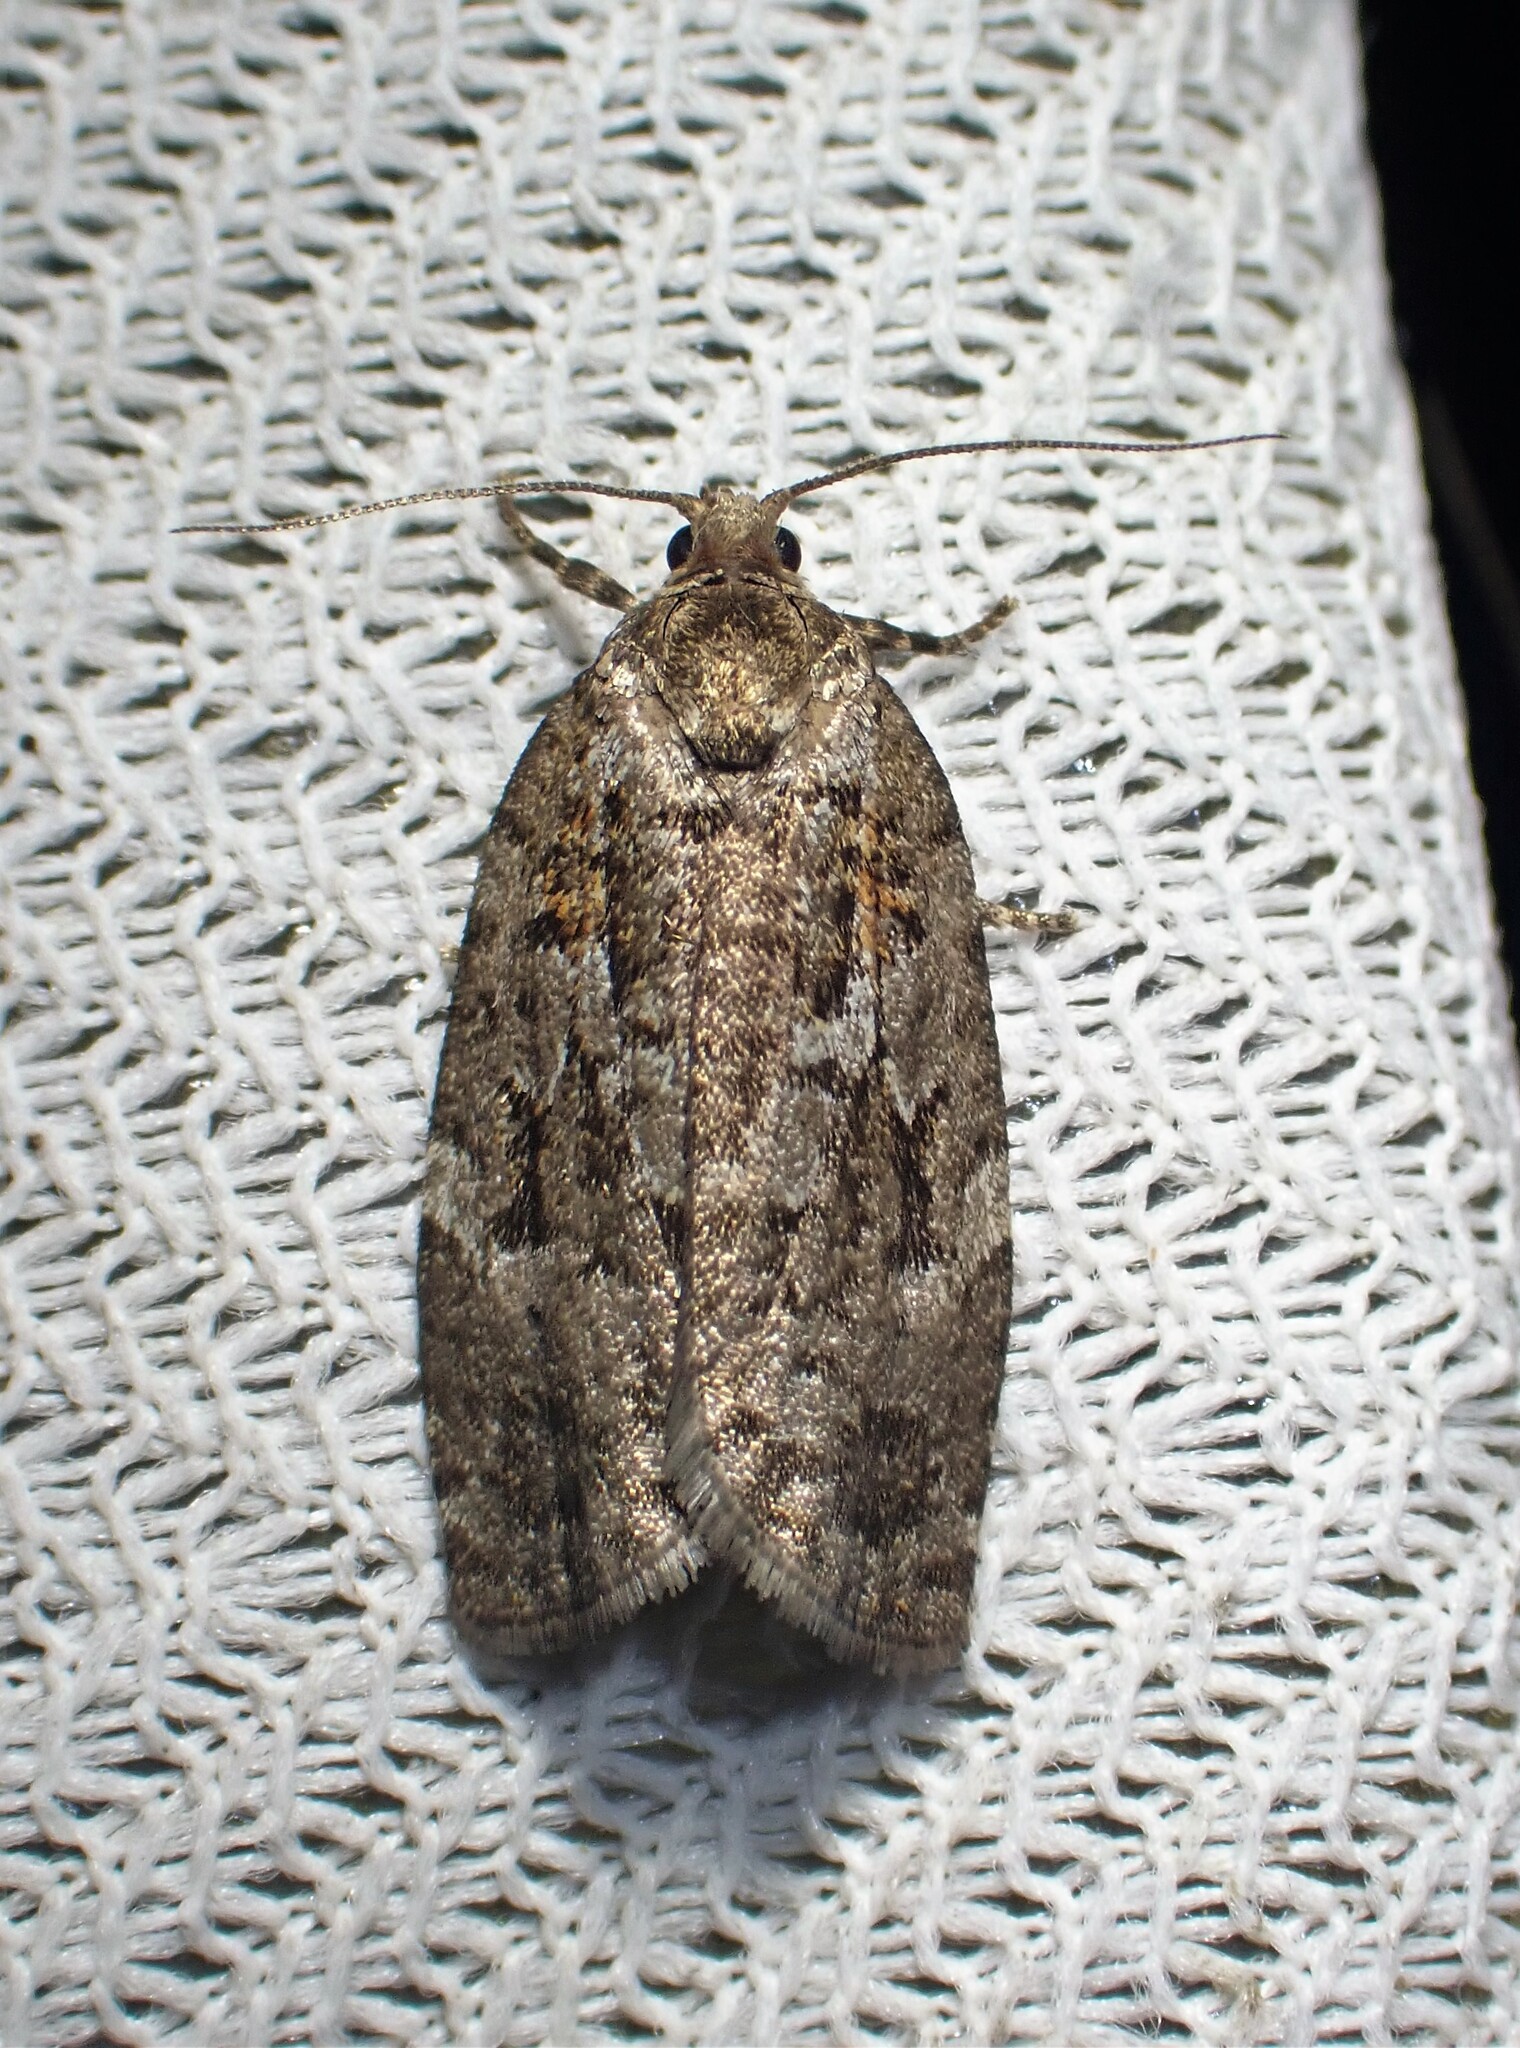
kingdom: Animalia
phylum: Arthropoda
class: Insecta
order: Lepidoptera
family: Tortricidae
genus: Choristoneura
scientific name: Choristoneura fumiferana
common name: Spruce budworm
